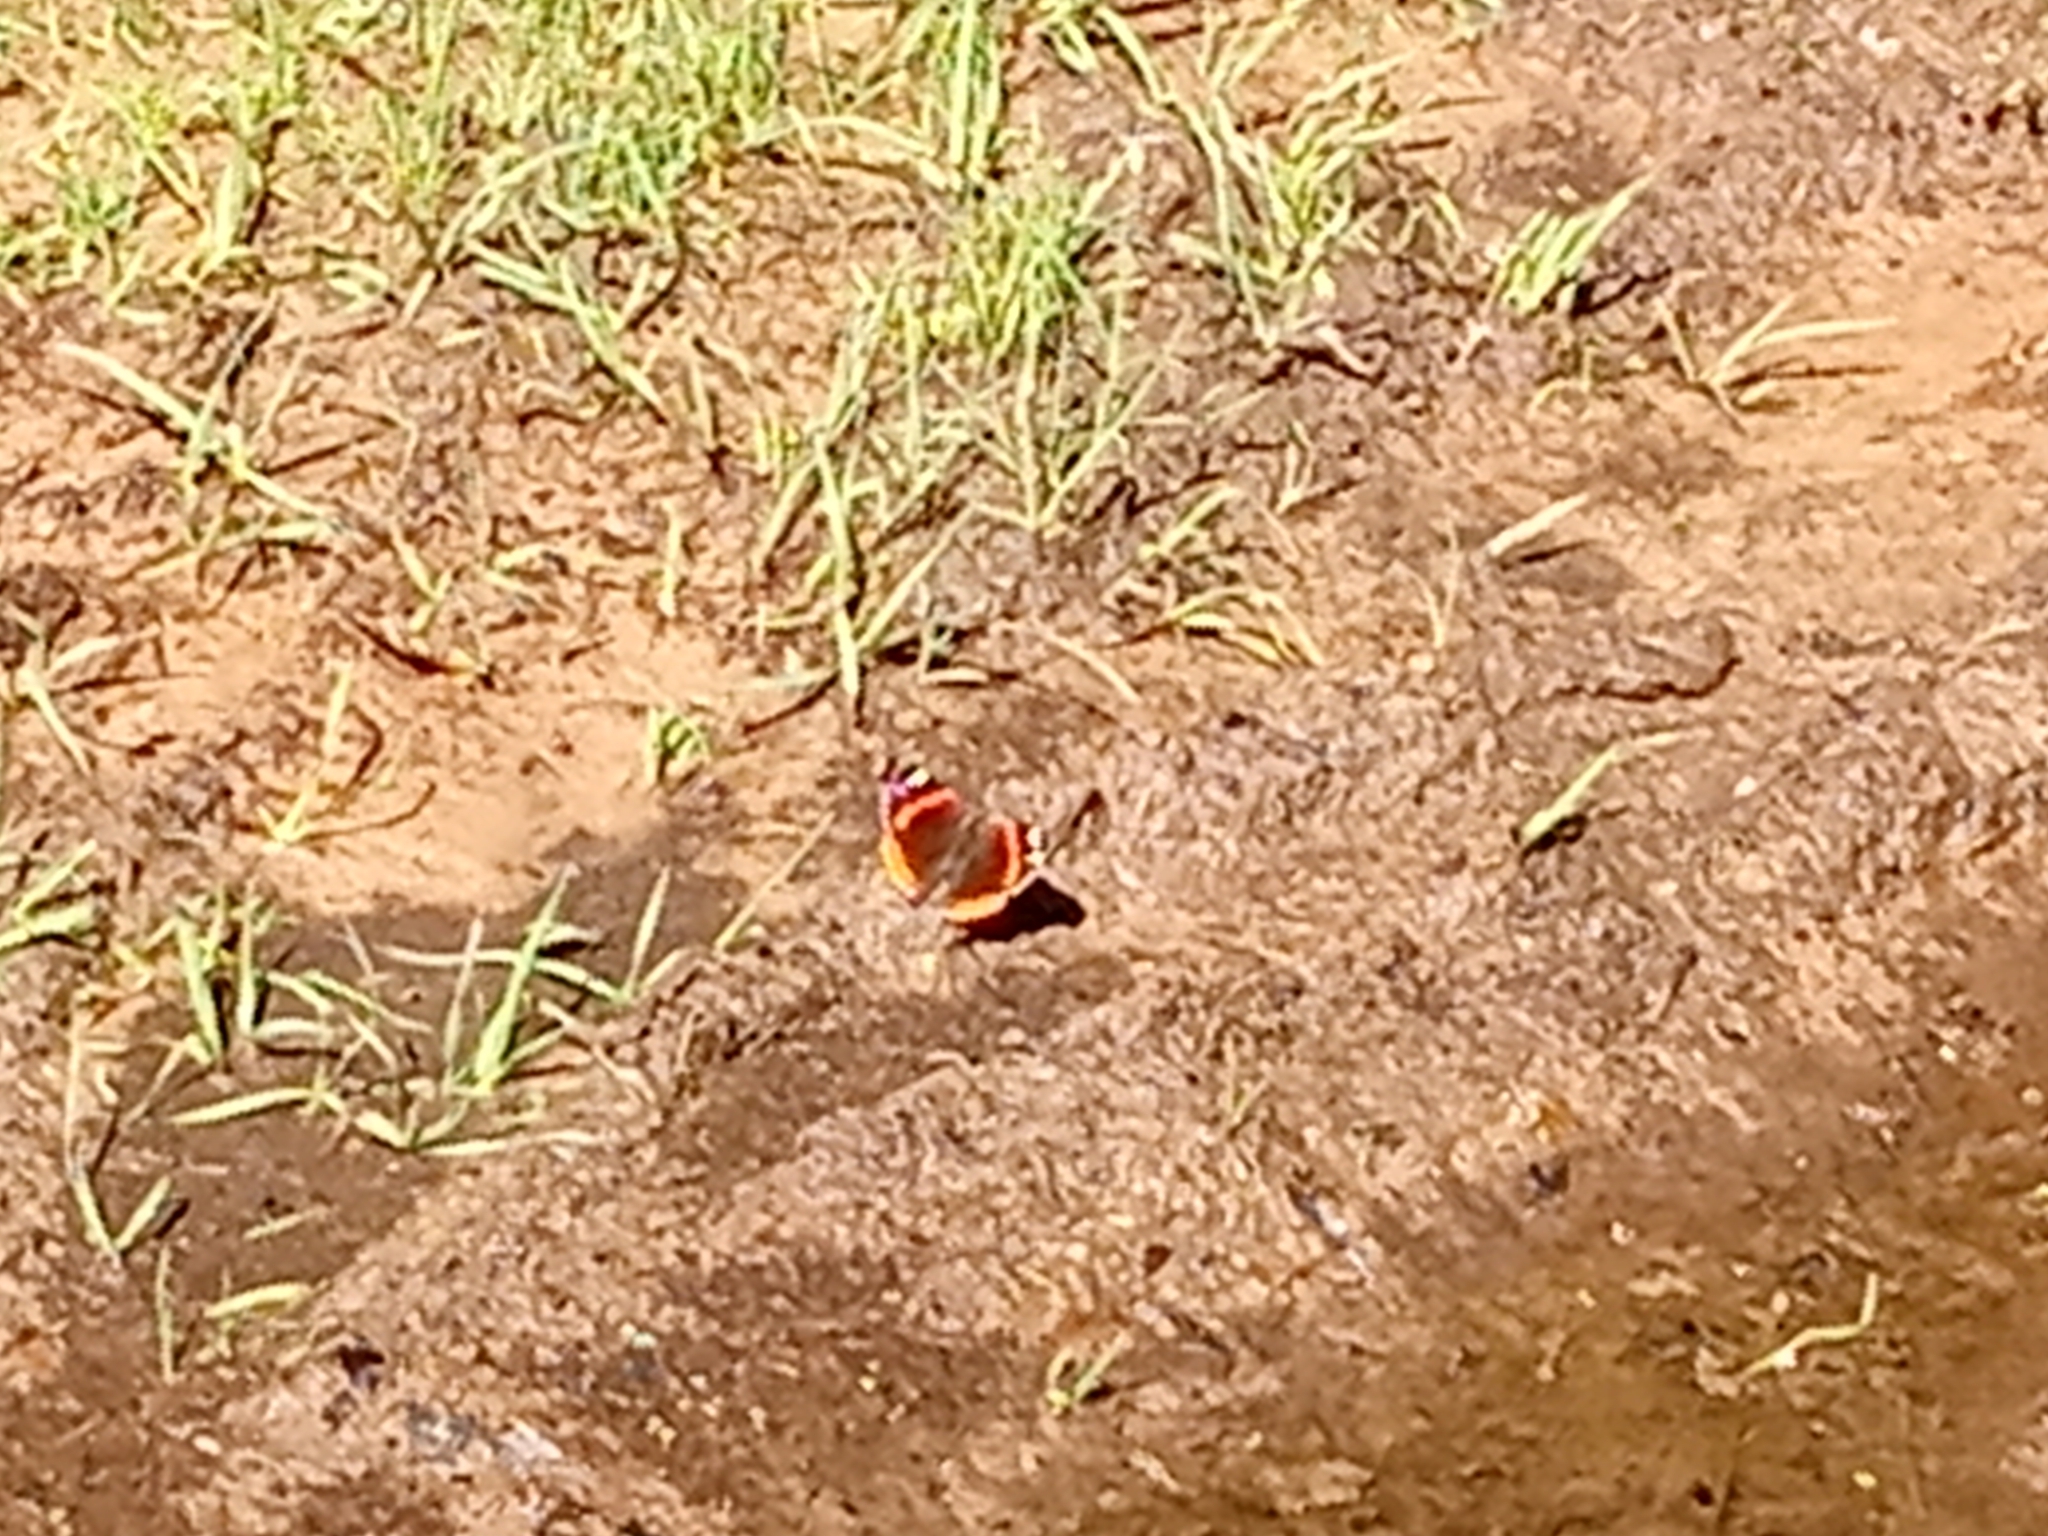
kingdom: Animalia
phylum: Arthropoda
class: Insecta
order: Lepidoptera
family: Nymphalidae
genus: Vanessa
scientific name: Vanessa atalanta
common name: Red admiral
